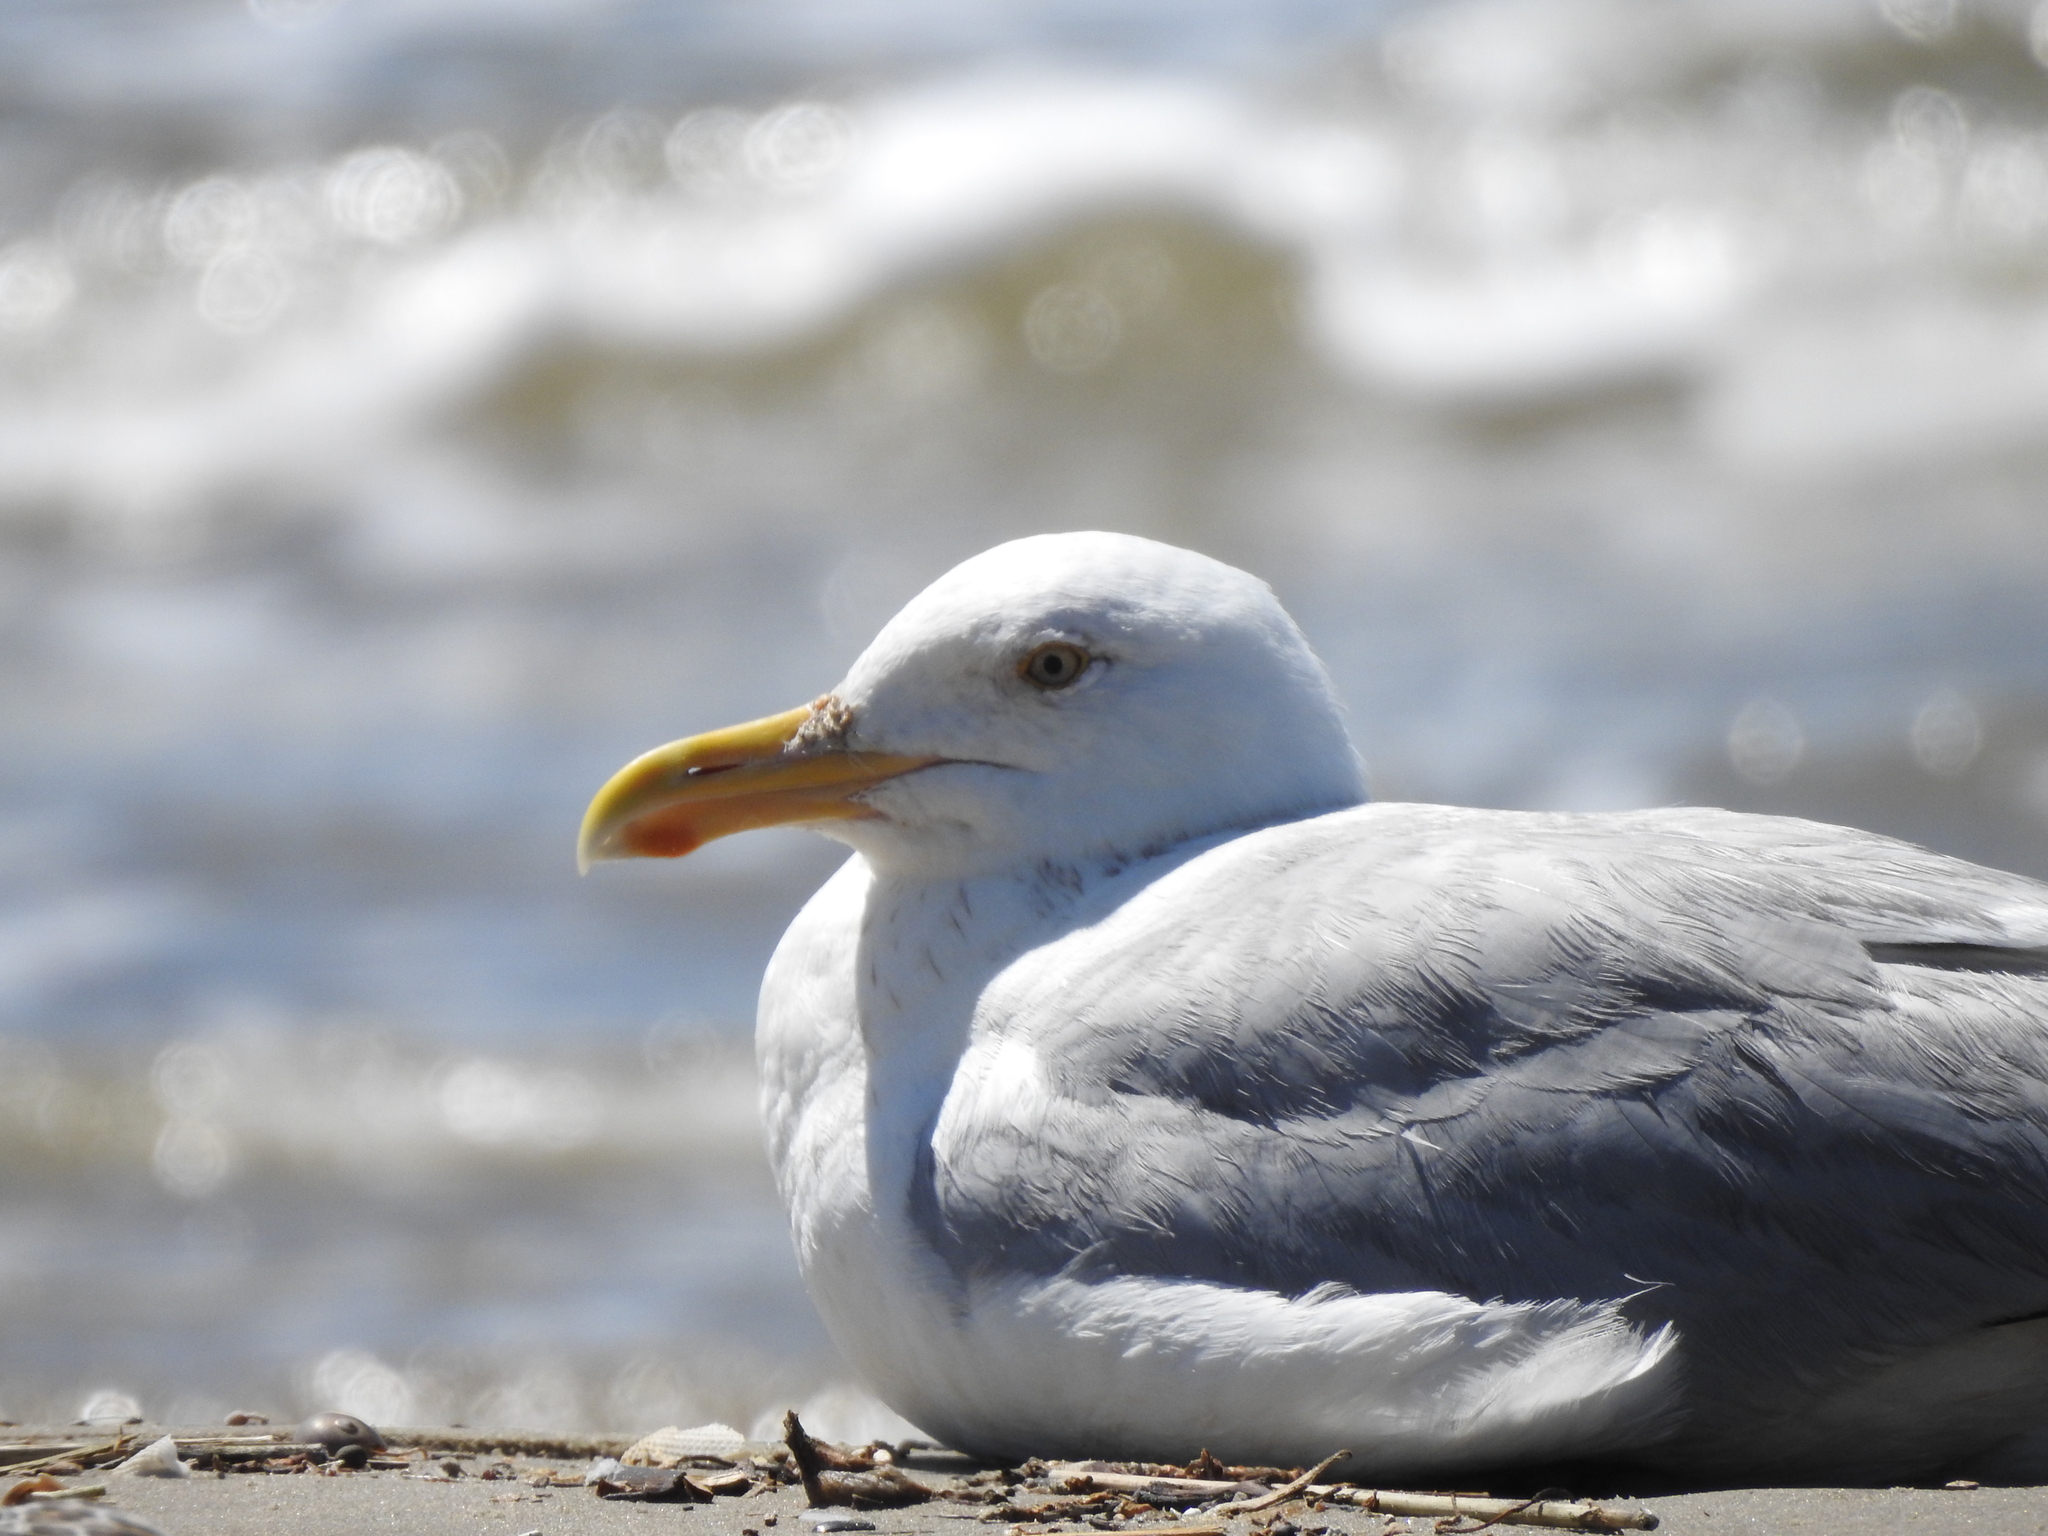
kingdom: Animalia
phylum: Chordata
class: Aves
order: Charadriiformes
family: Laridae
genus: Larus
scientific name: Larus argentatus
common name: Herring gull
